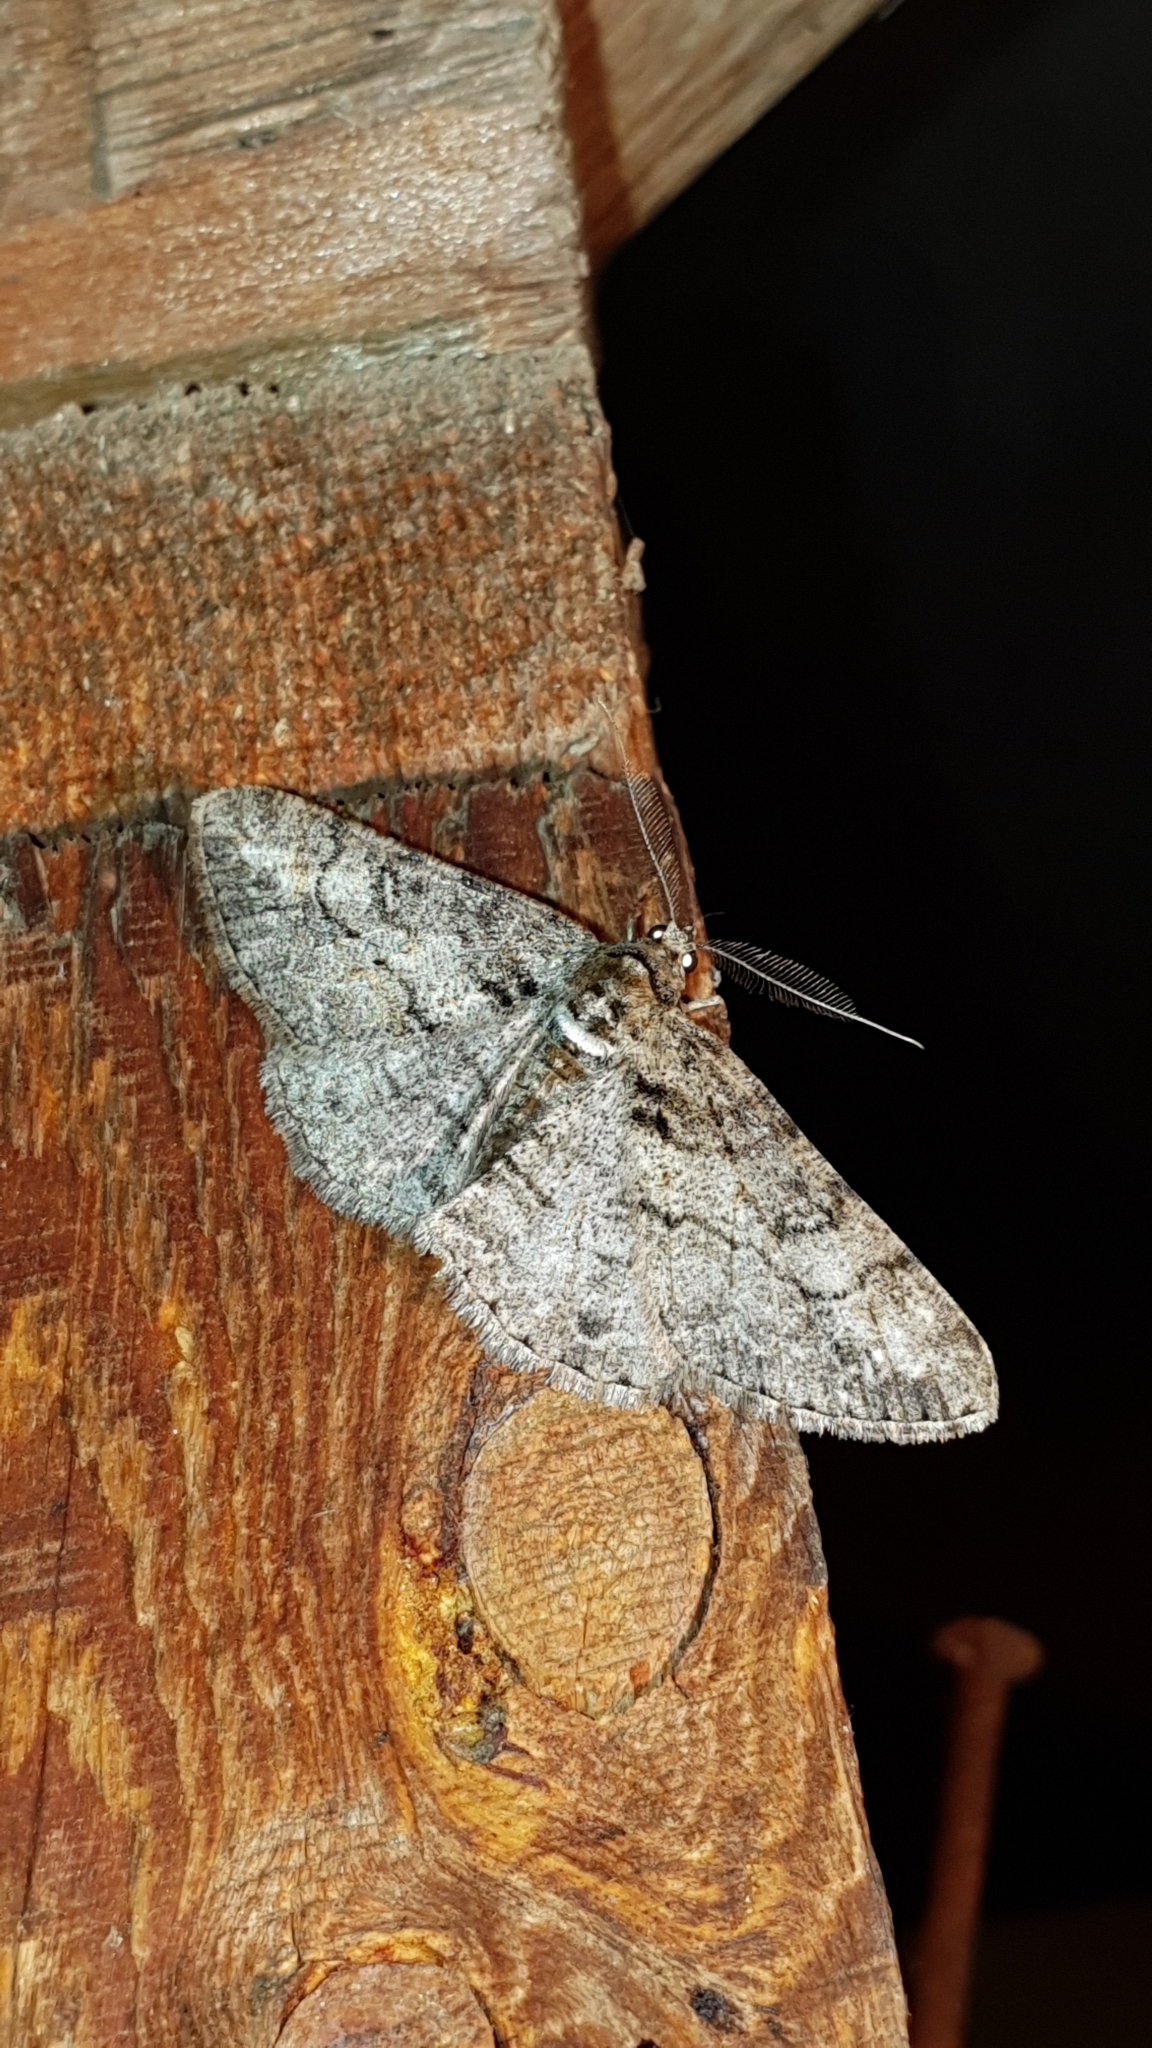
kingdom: Animalia
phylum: Arthropoda
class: Insecta
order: Lepidoptera
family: Geometridae
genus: Cleora
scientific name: Cleora cinctaria
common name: Ringed carpet
